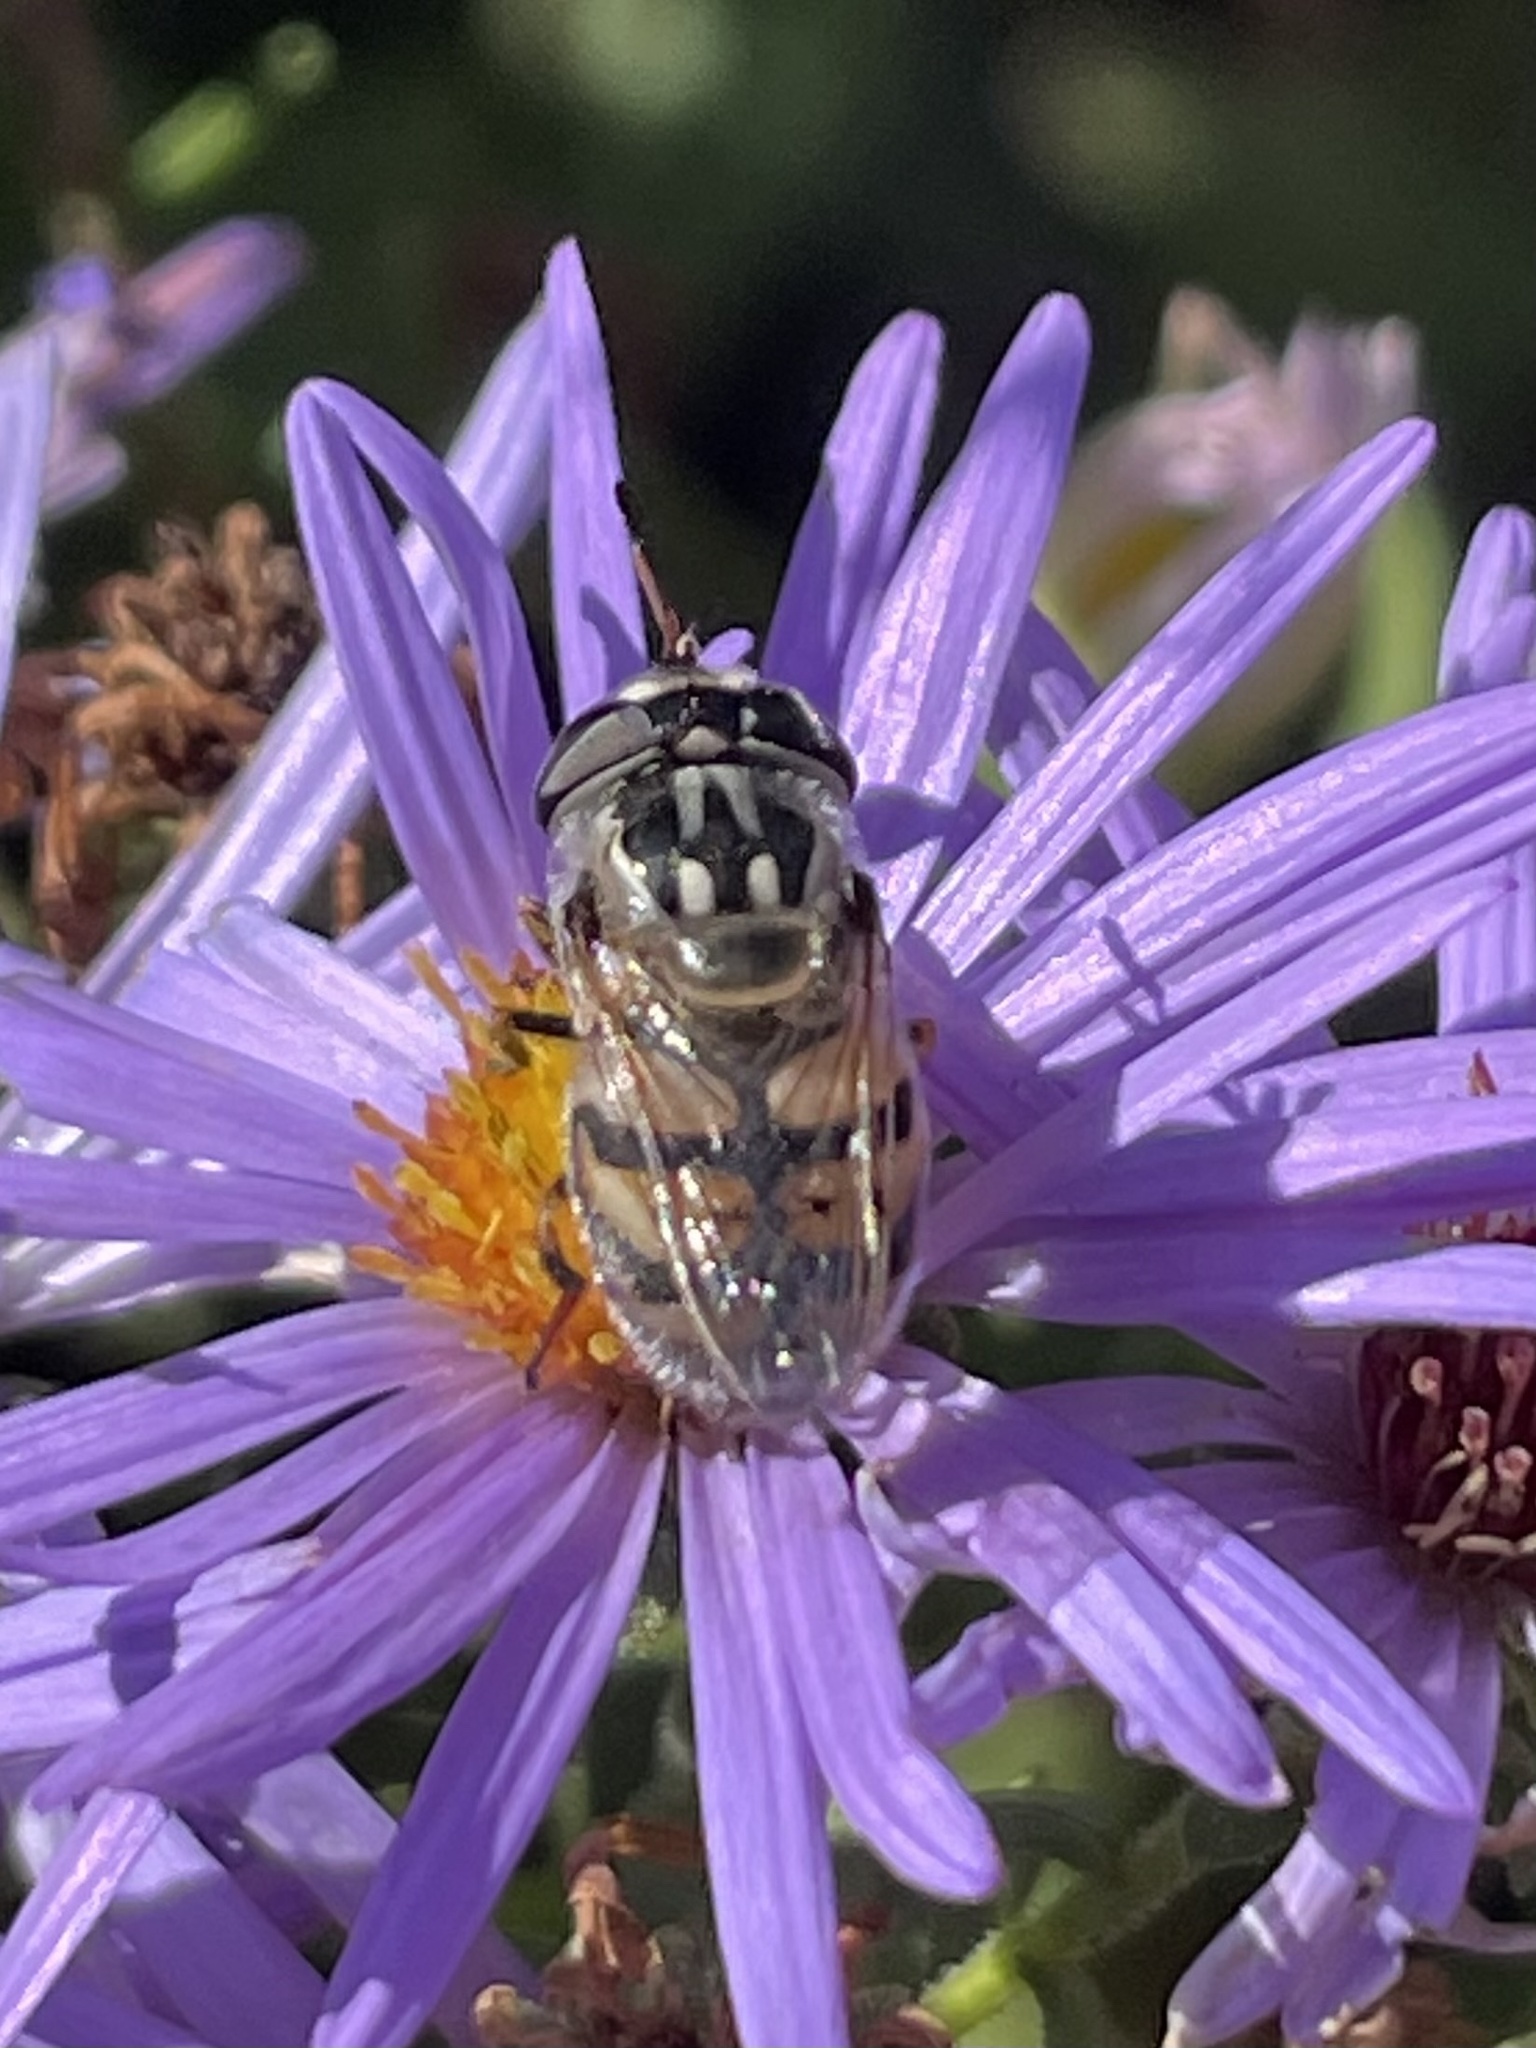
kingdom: Animalia
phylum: Arthropoda
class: Insecta
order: Diptera
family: Syrphidae
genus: Copestylum
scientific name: Copestylum marginatum
